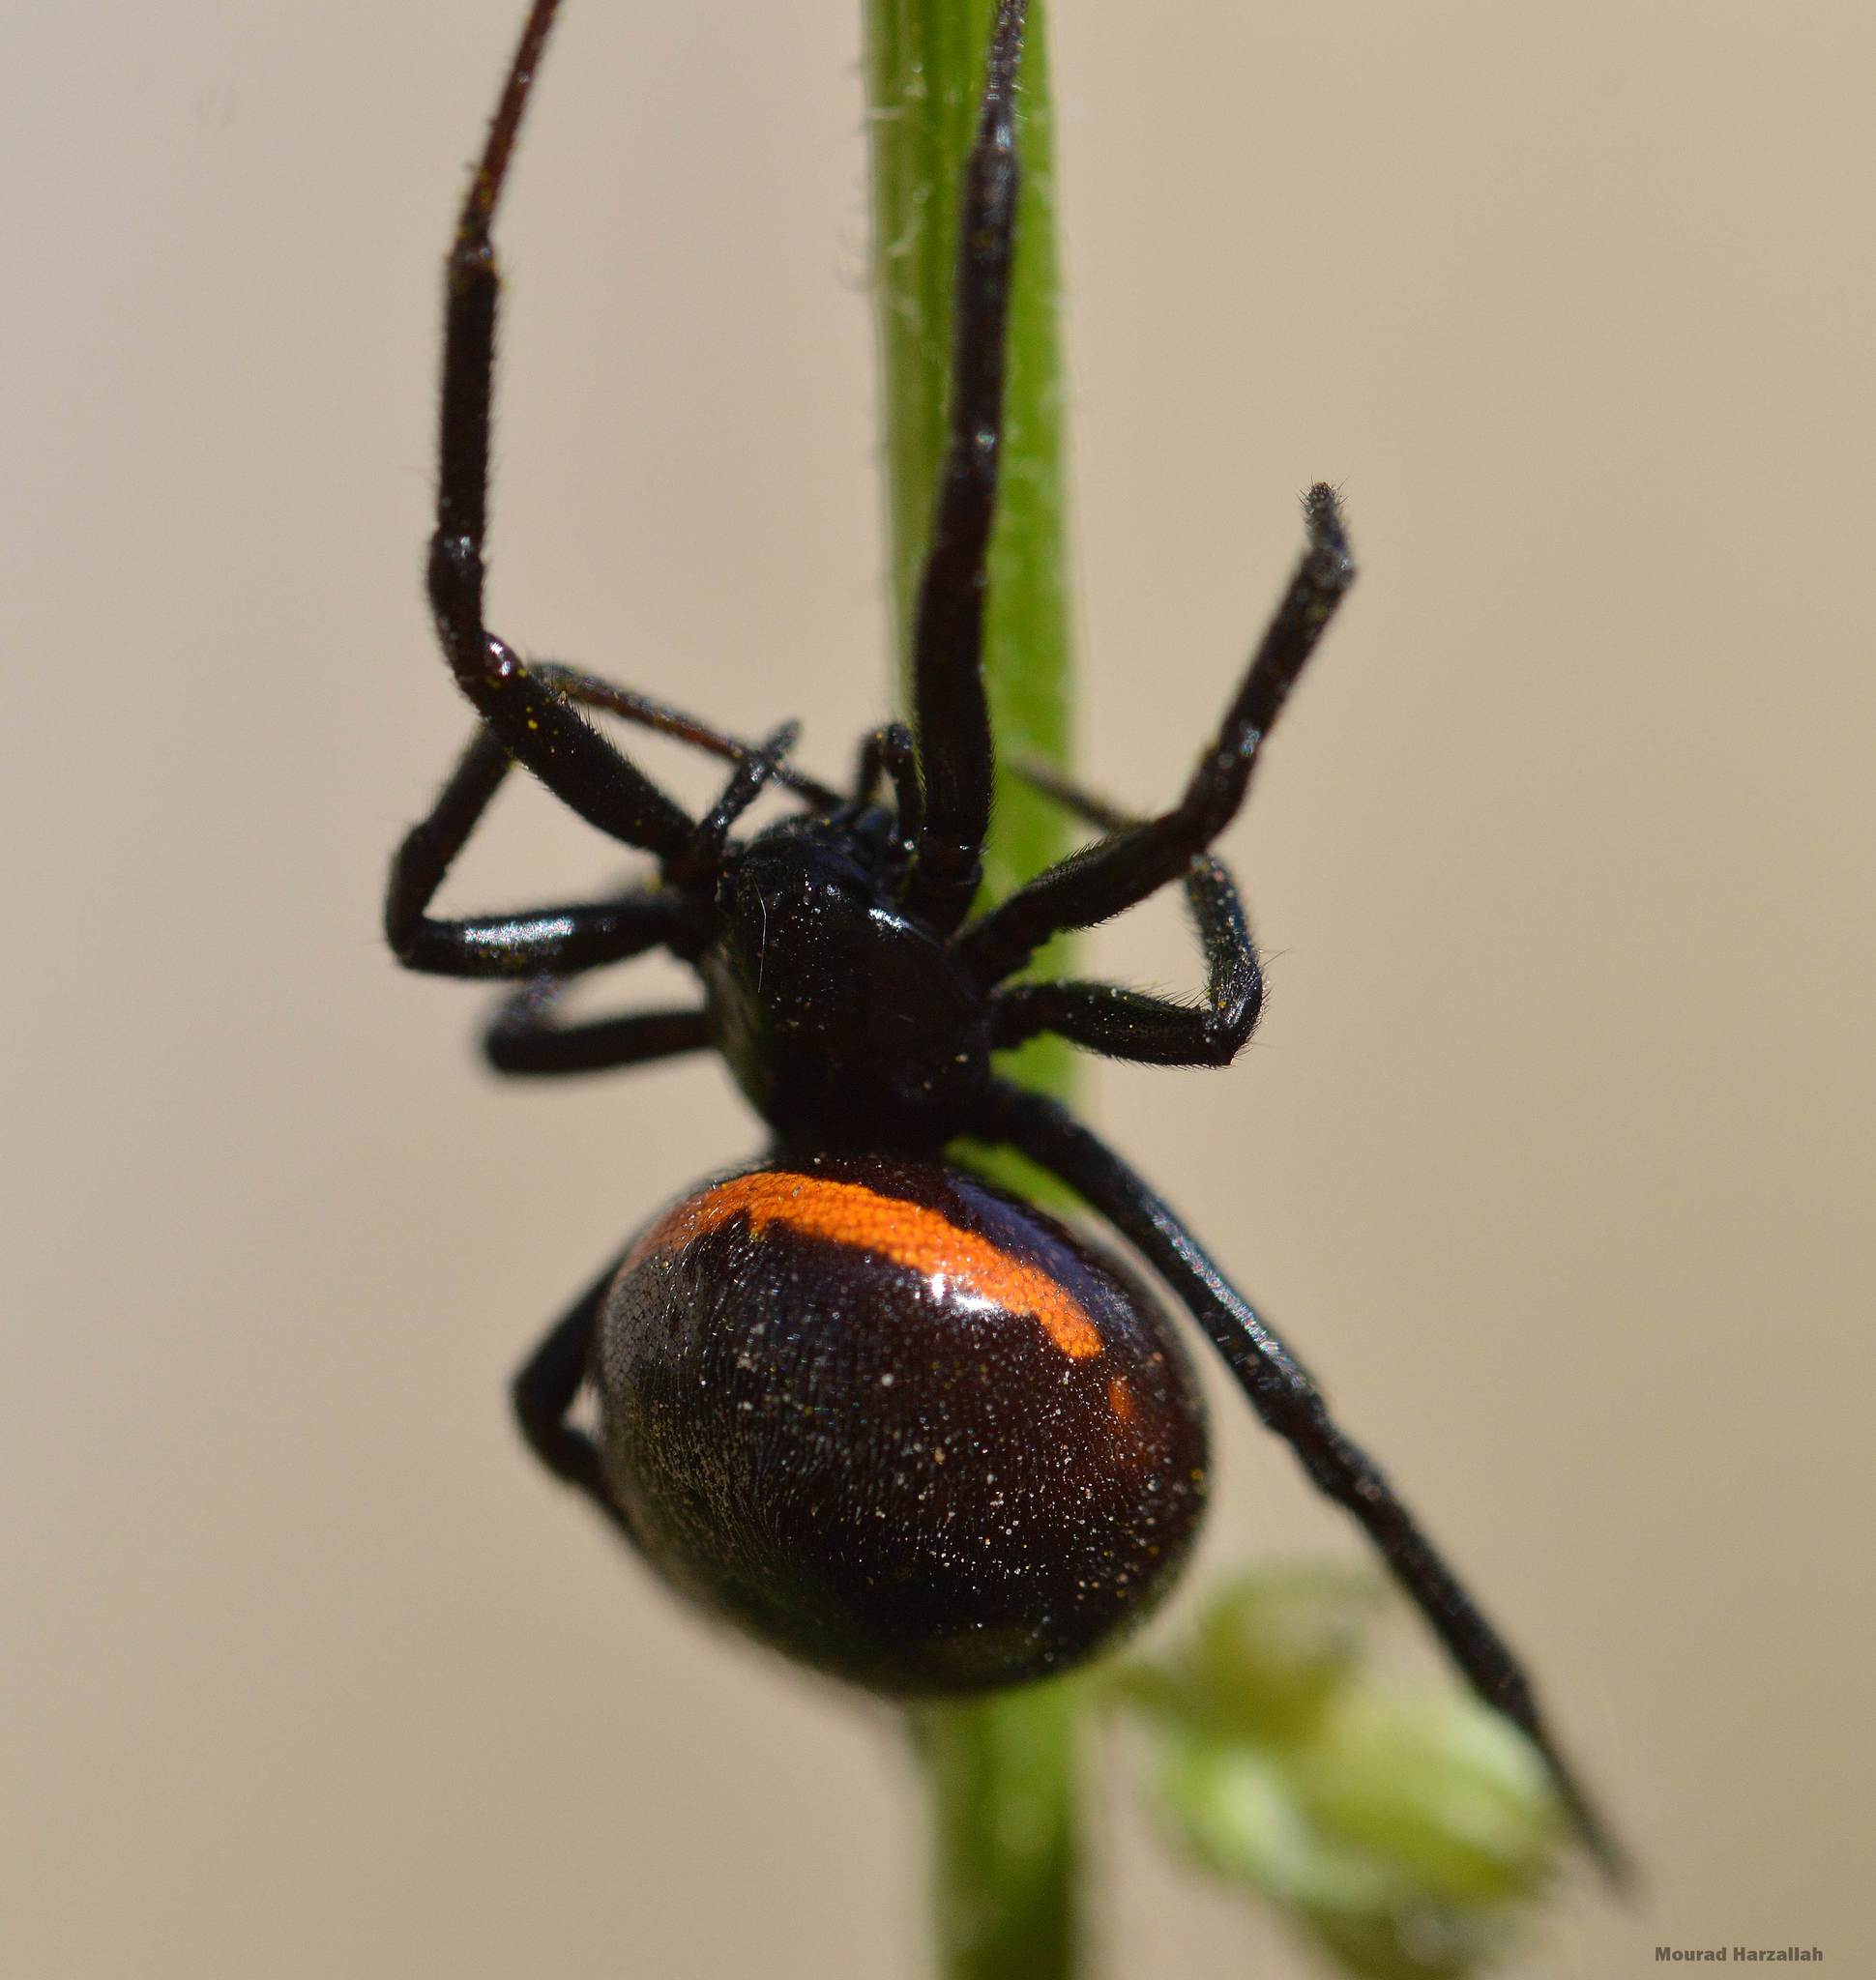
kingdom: Animalia
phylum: Arthropoda
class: Arachnida
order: Araneae
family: Theridiidae
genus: Steatoda
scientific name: Steatoda paykulliana
